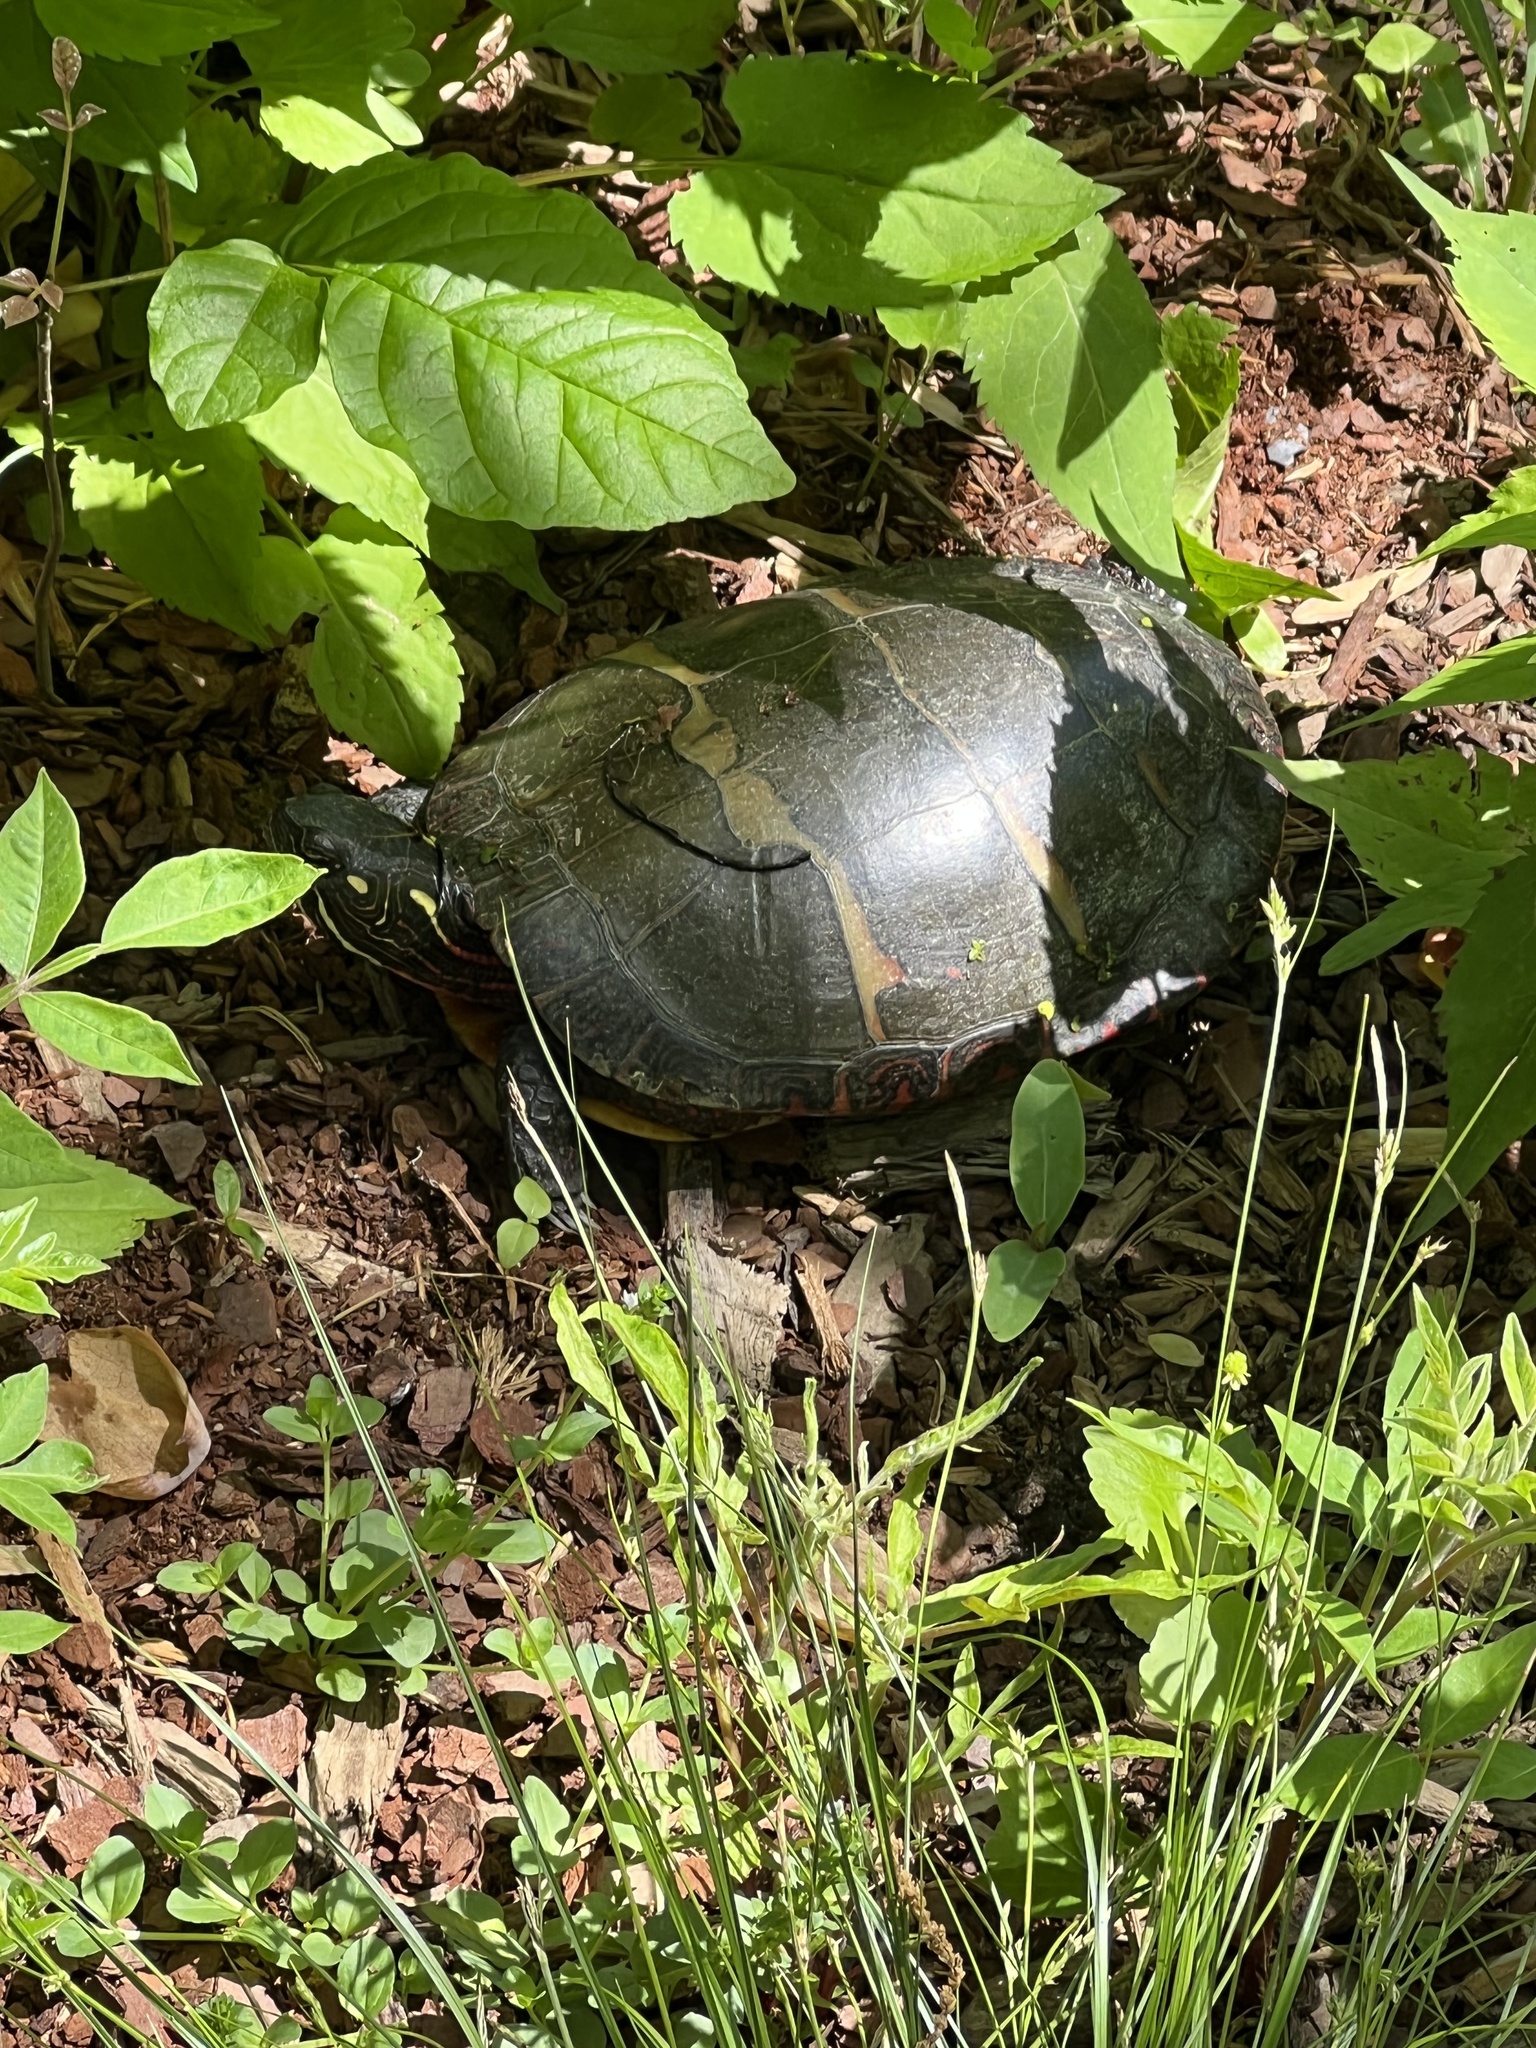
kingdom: Animalia
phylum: Chordata
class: Testudines
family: Emydidae
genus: Chrysemys
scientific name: Chrysemys picta
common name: Painted turtle
